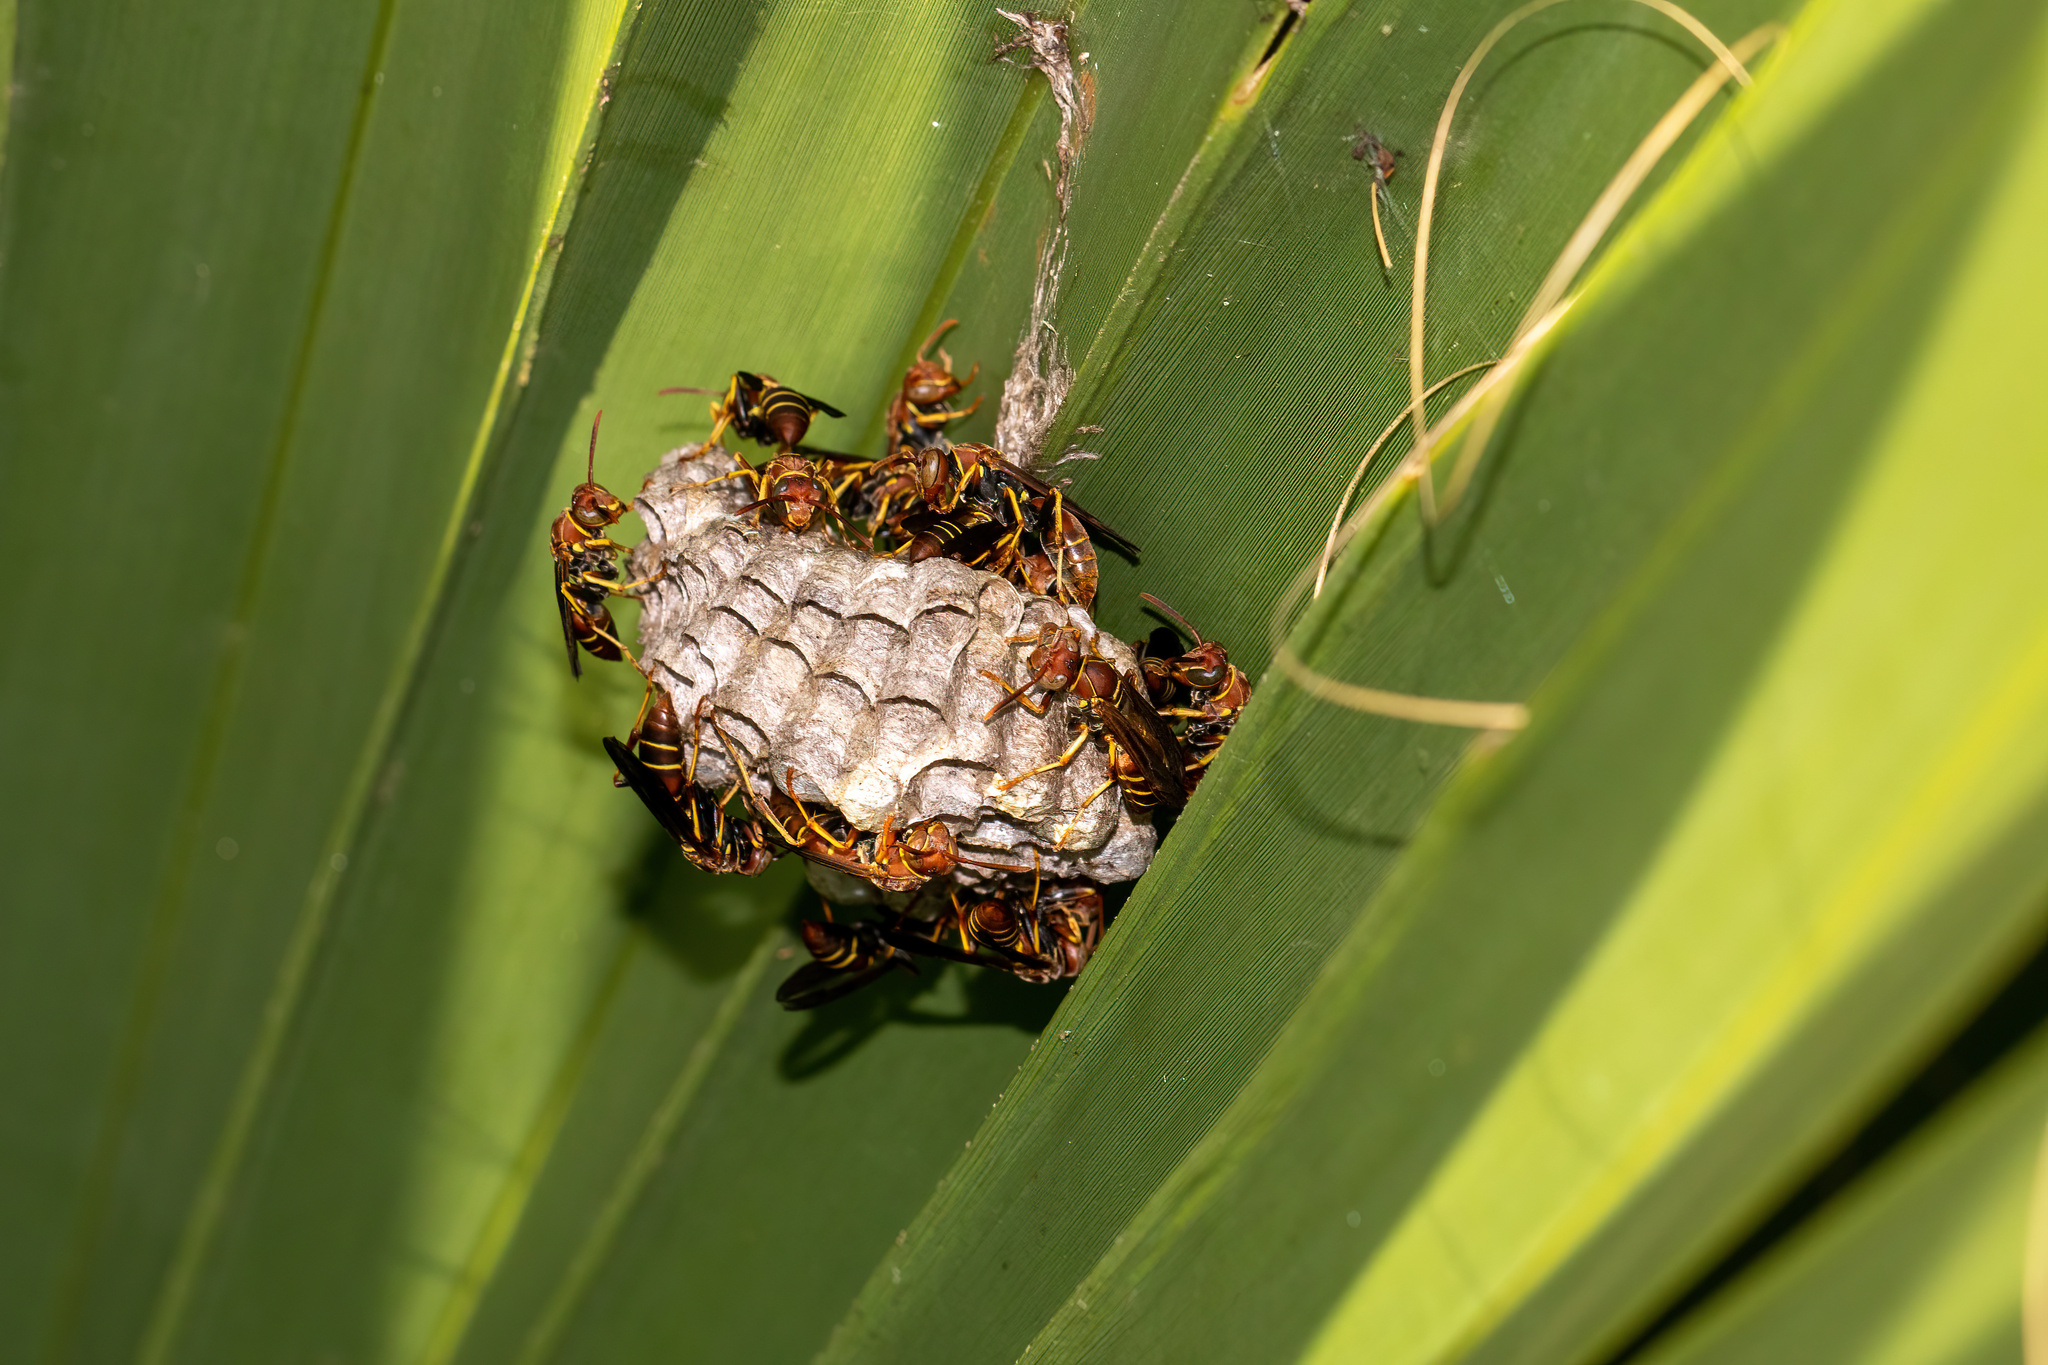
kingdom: Animalia
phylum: Arthropoda
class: Insecta
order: Hymenoptera
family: Eumenidae
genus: Polistes
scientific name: Polistes dorsalis
